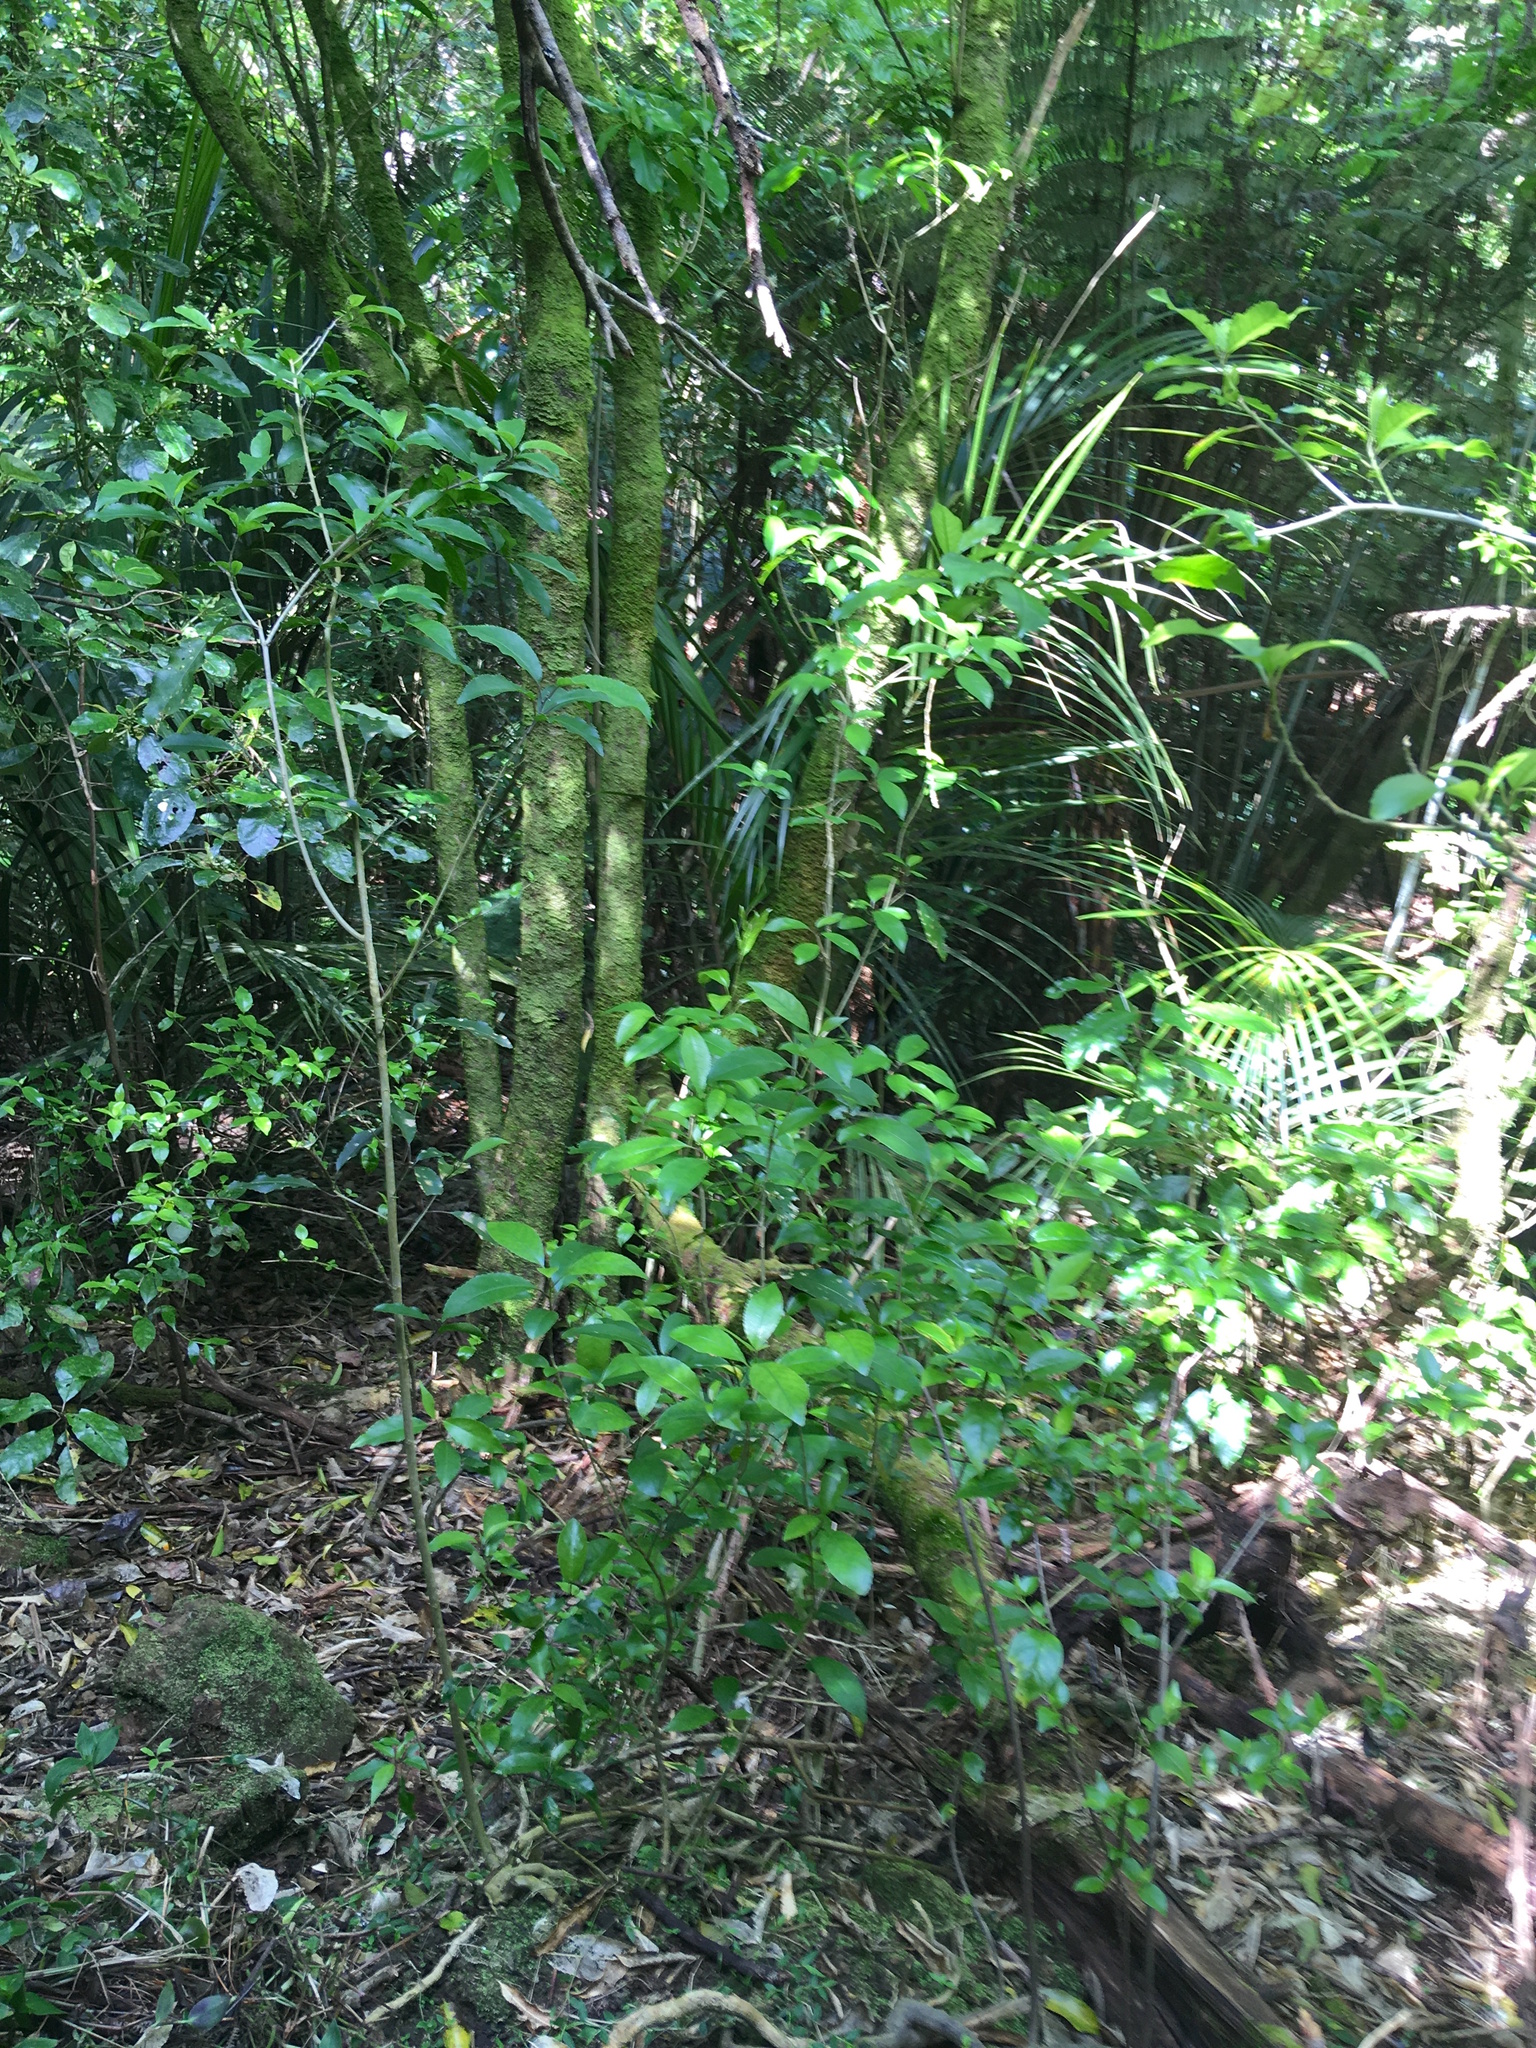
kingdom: Plantae
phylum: Tracheophyta
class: Magnoliopsida
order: Malpighiales
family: Violaceae
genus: Melicytus
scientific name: Melicytus ramiflorus
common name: Mahoe
